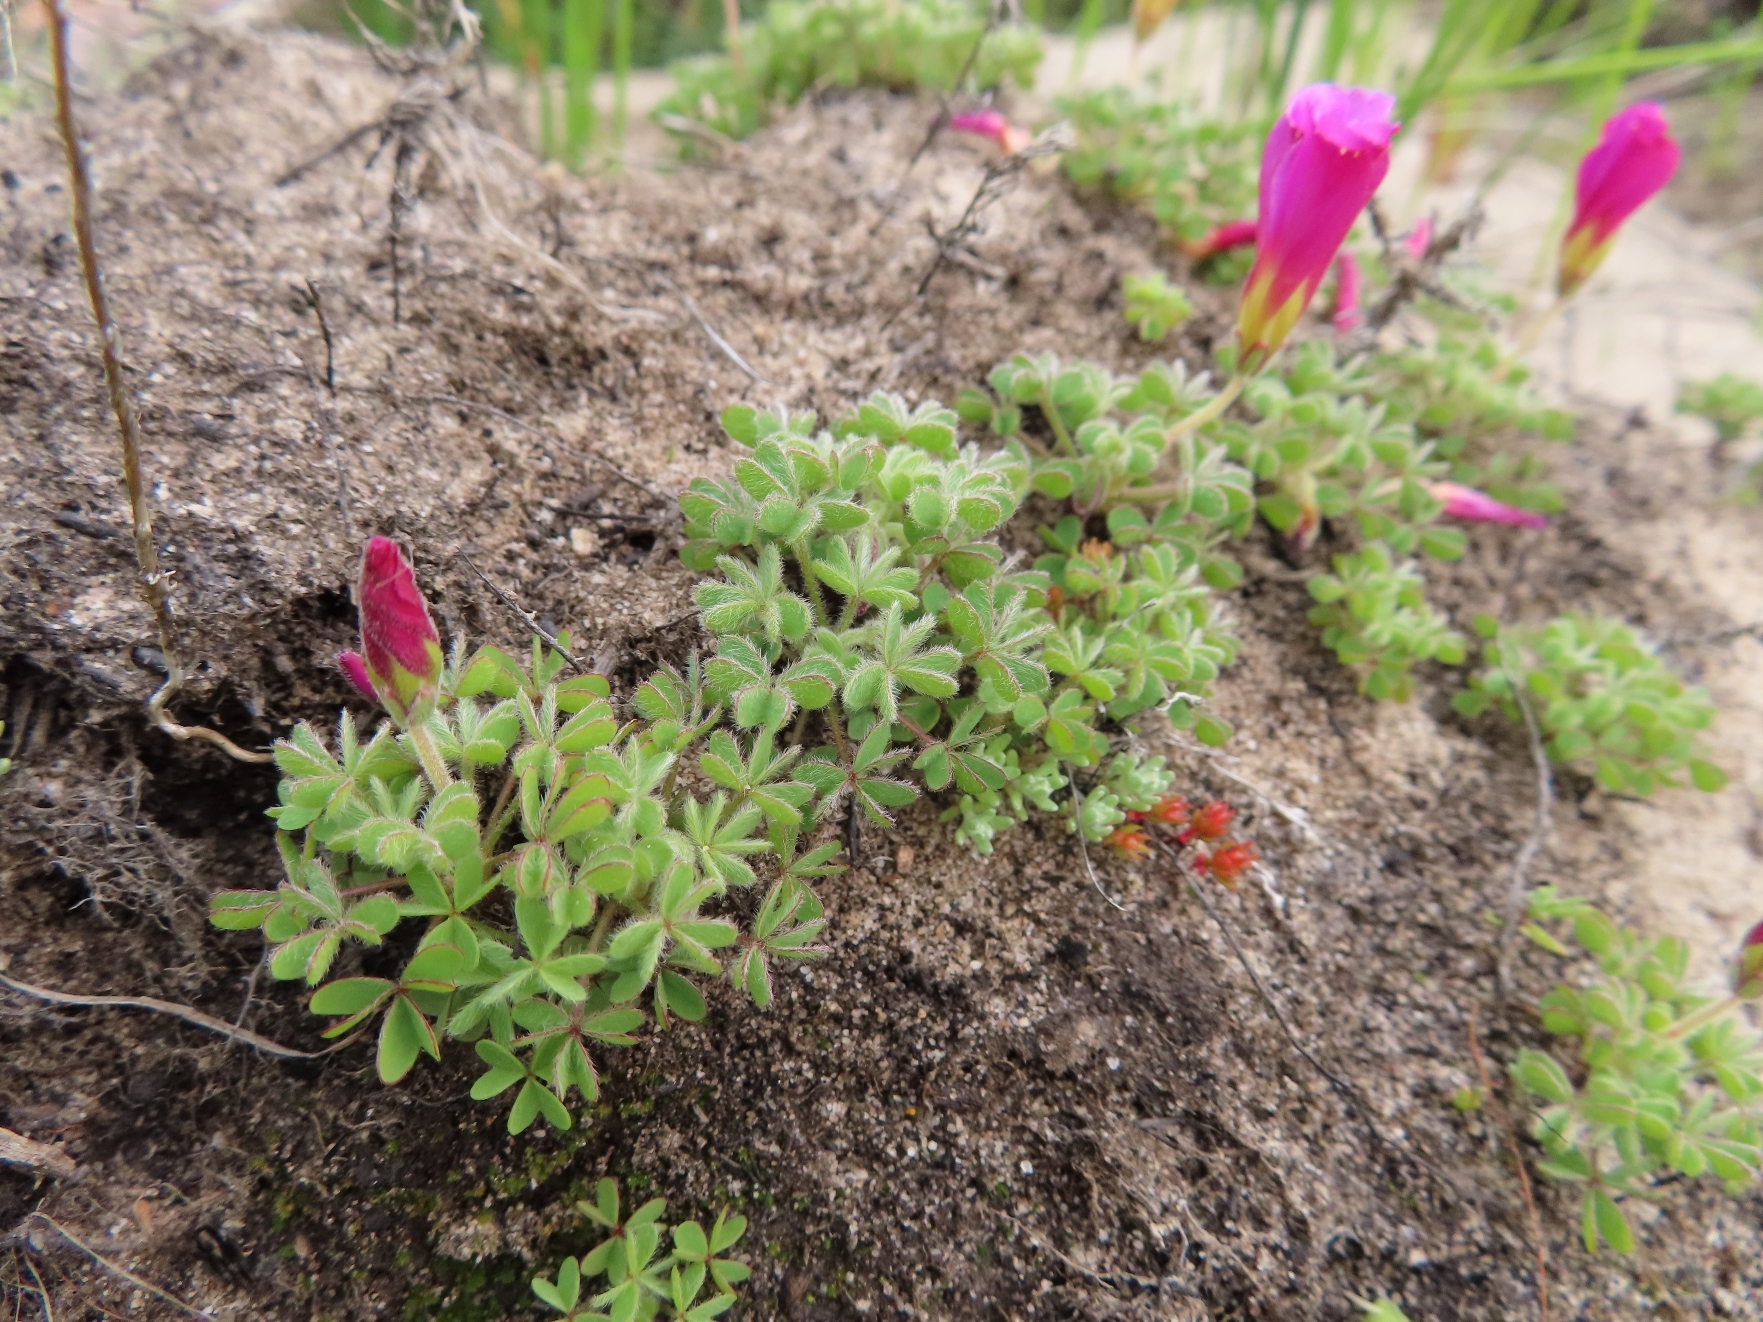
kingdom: Plantae
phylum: Tracheophyta
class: Magnoliopsida
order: Oxalidales
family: Oxalidaceae
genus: Oxalis
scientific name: Oxalis heterophylla
